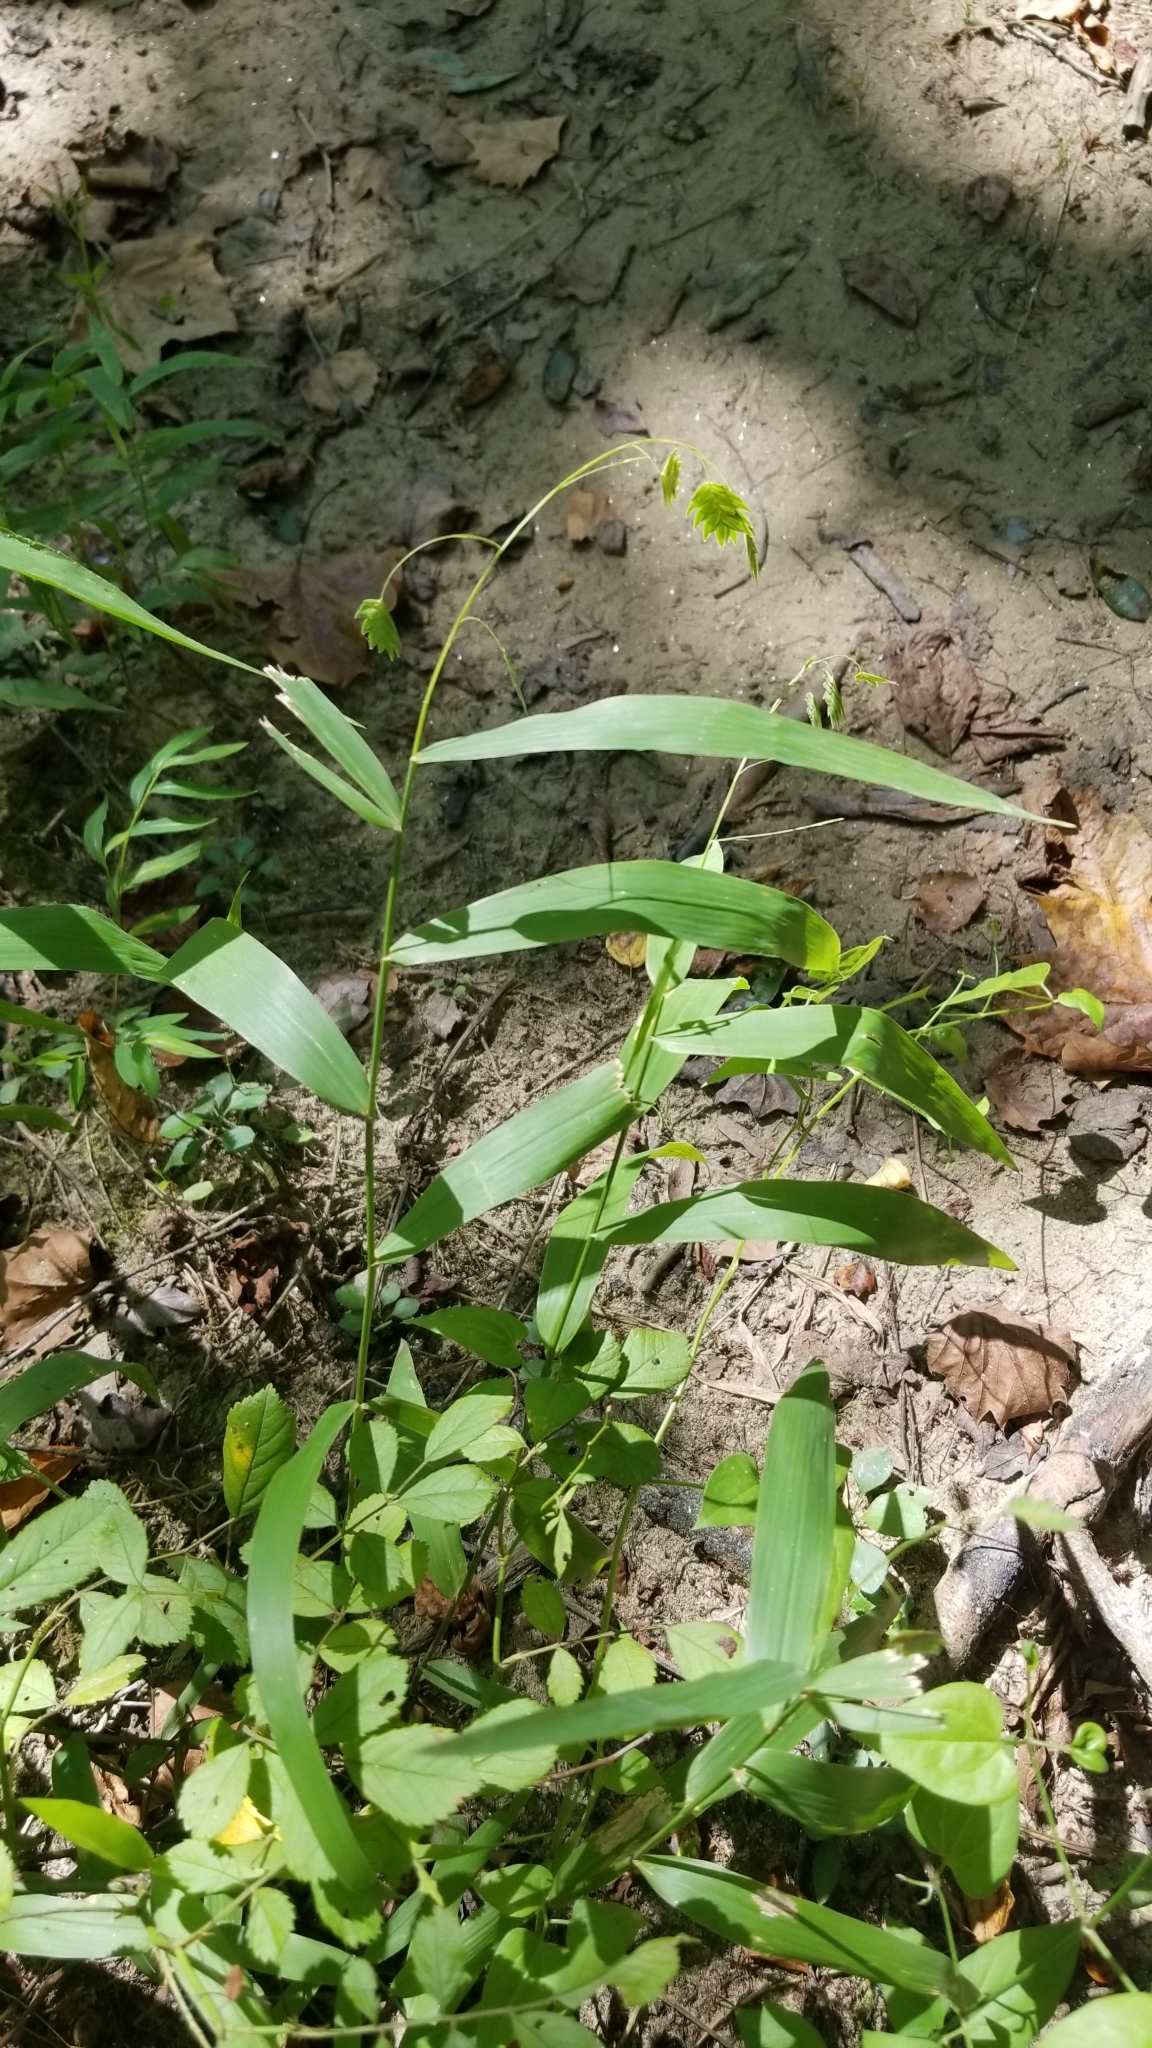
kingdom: Plantae
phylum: Tracheophyta
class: Liliopsida
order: Poales
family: Poaceae
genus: Chasmanthium
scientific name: Chasmanthium latifolium
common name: Broad-leaved chasmanthium
